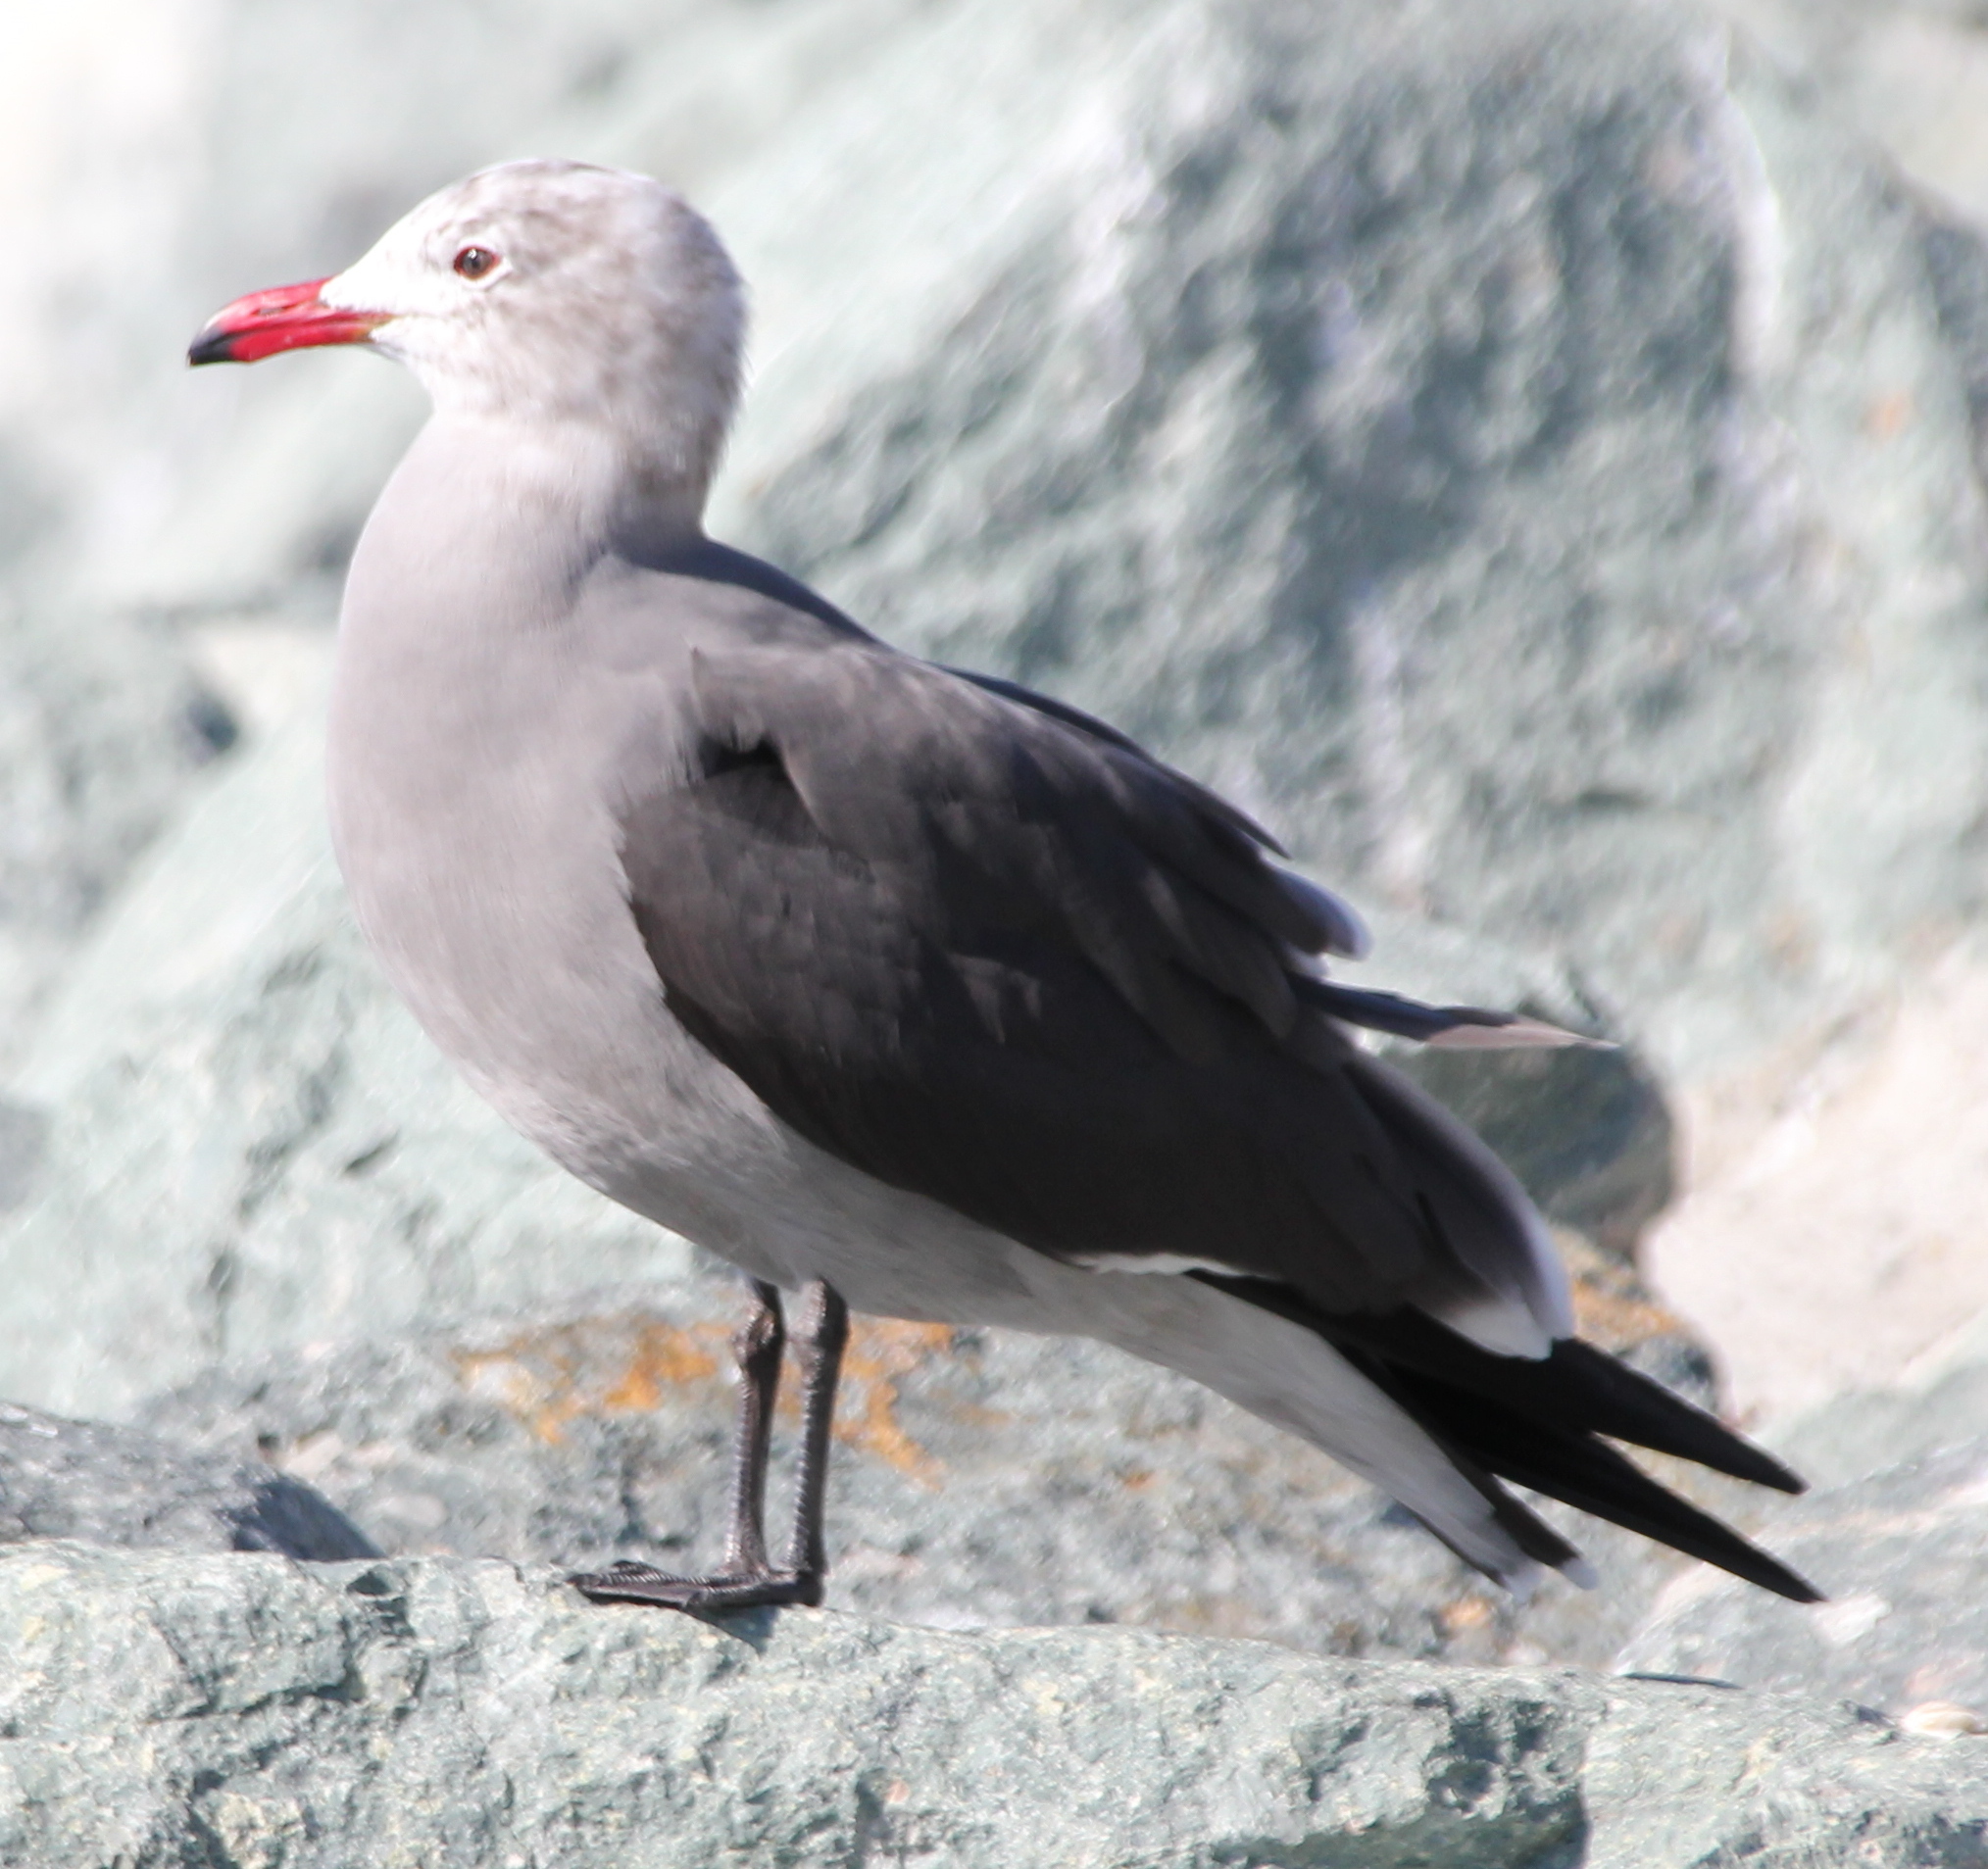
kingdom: Animalia
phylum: Chordata
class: Aves
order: Charadriiformes
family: Laridae
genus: Larus
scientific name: Larus heermanni
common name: Heermann's gull
